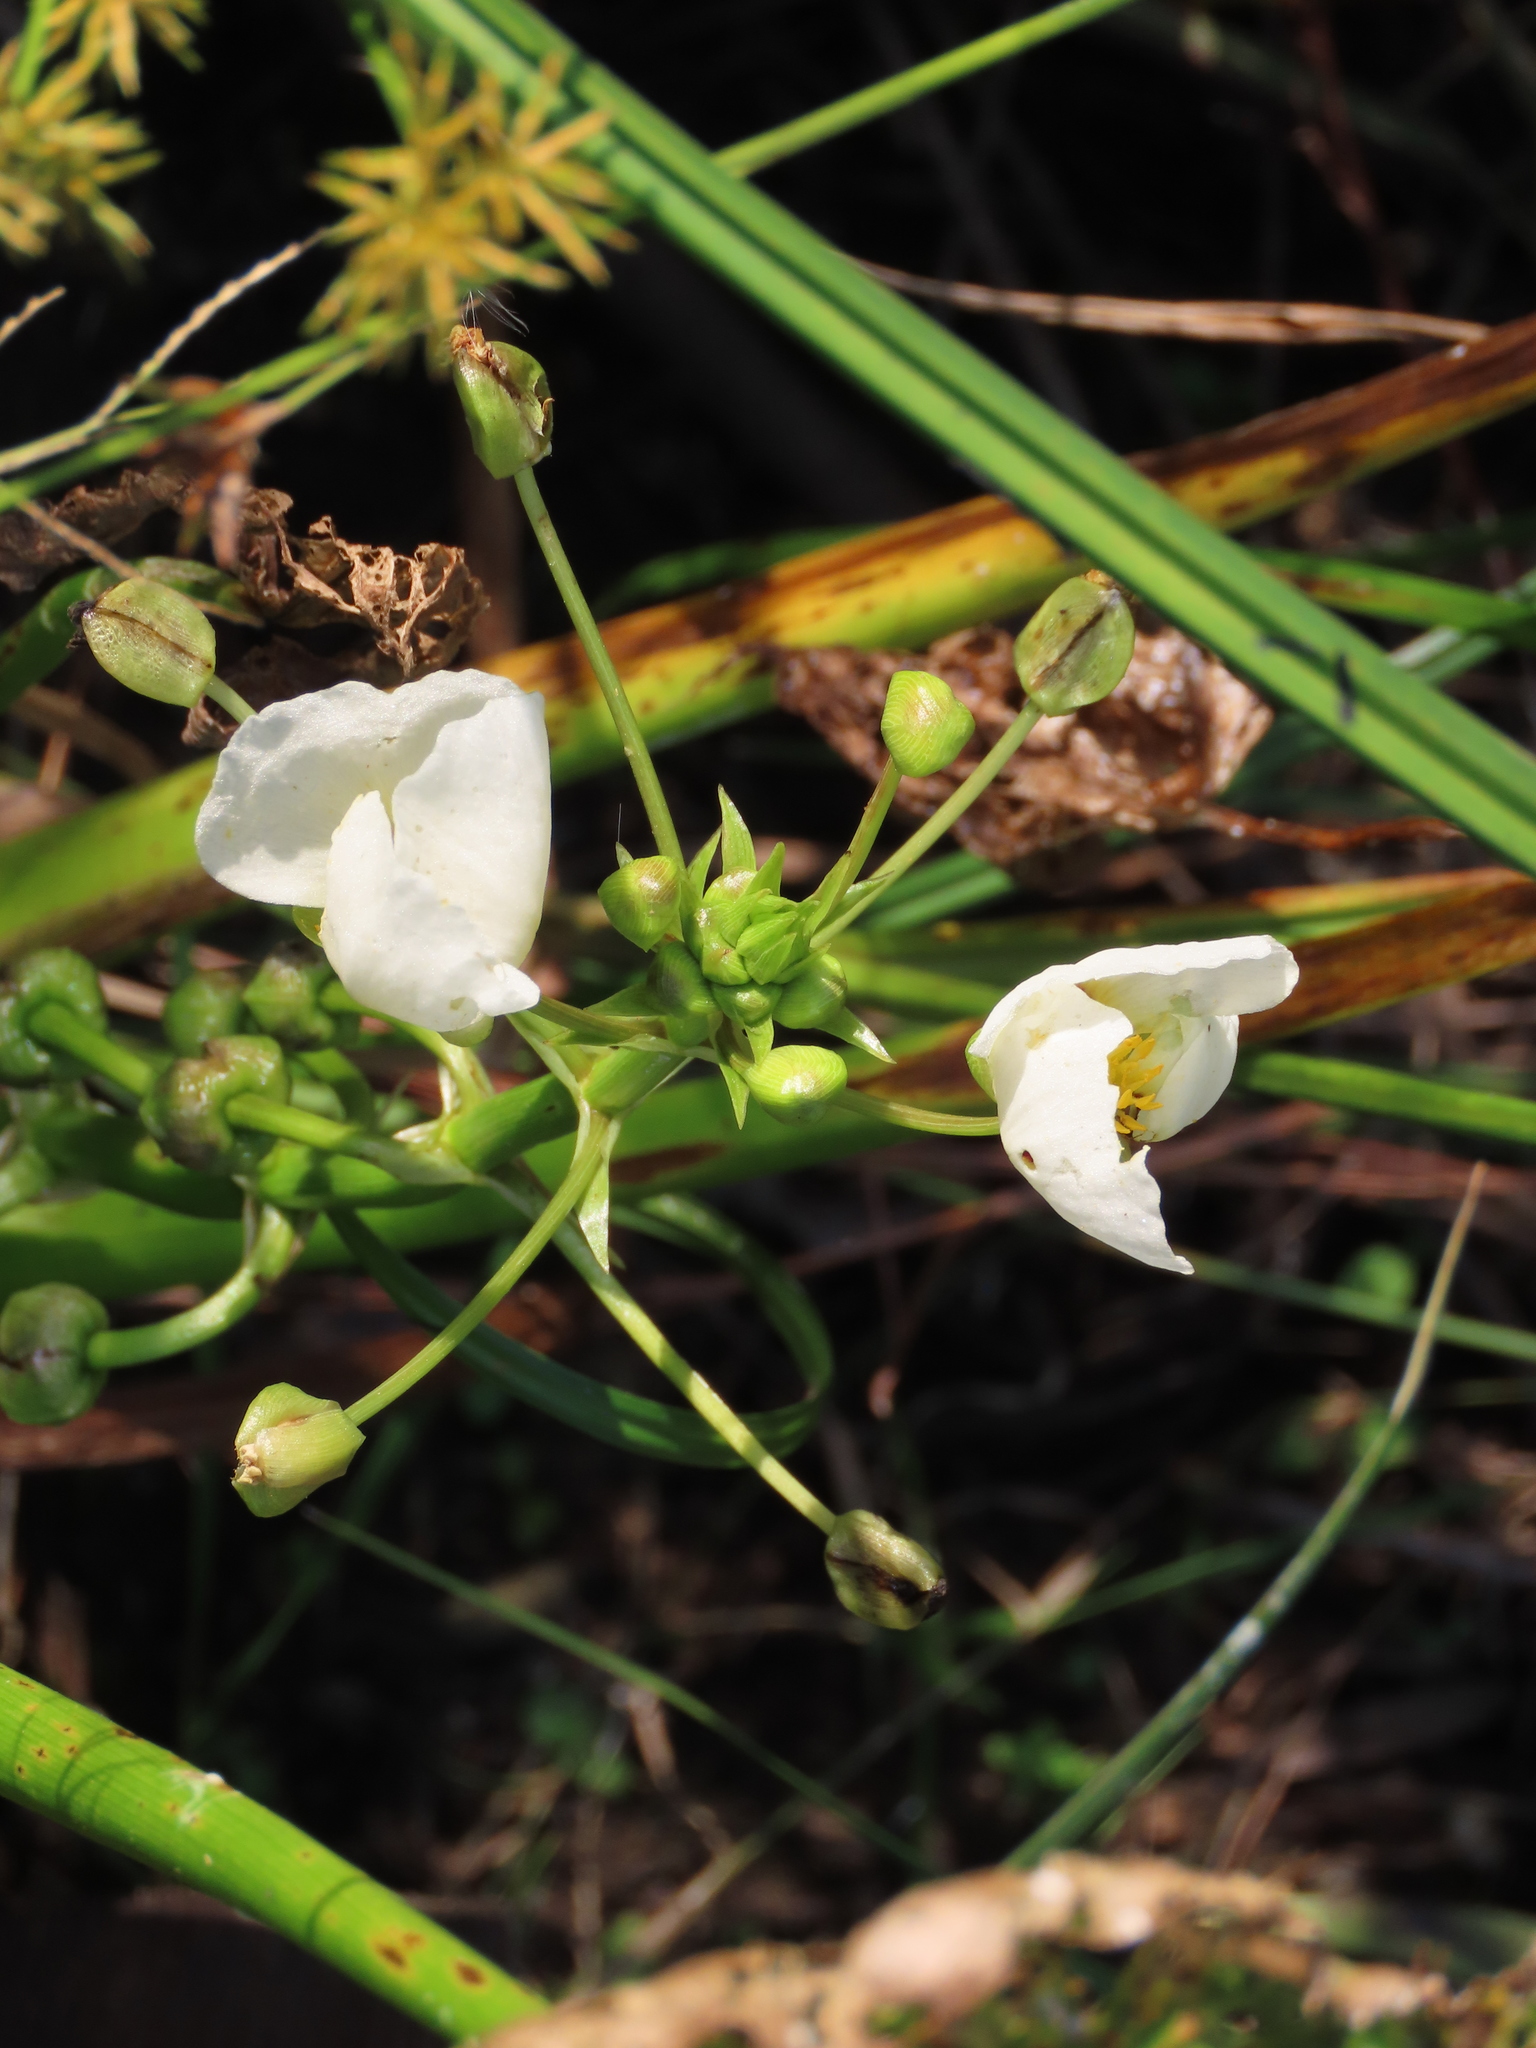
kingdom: Plantae
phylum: Tracheophyta
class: Liliopsida
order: Alismatales
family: Alismataceae
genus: Sagittaria
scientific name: Sagittaria montevidensis
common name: Giant arrowhead
